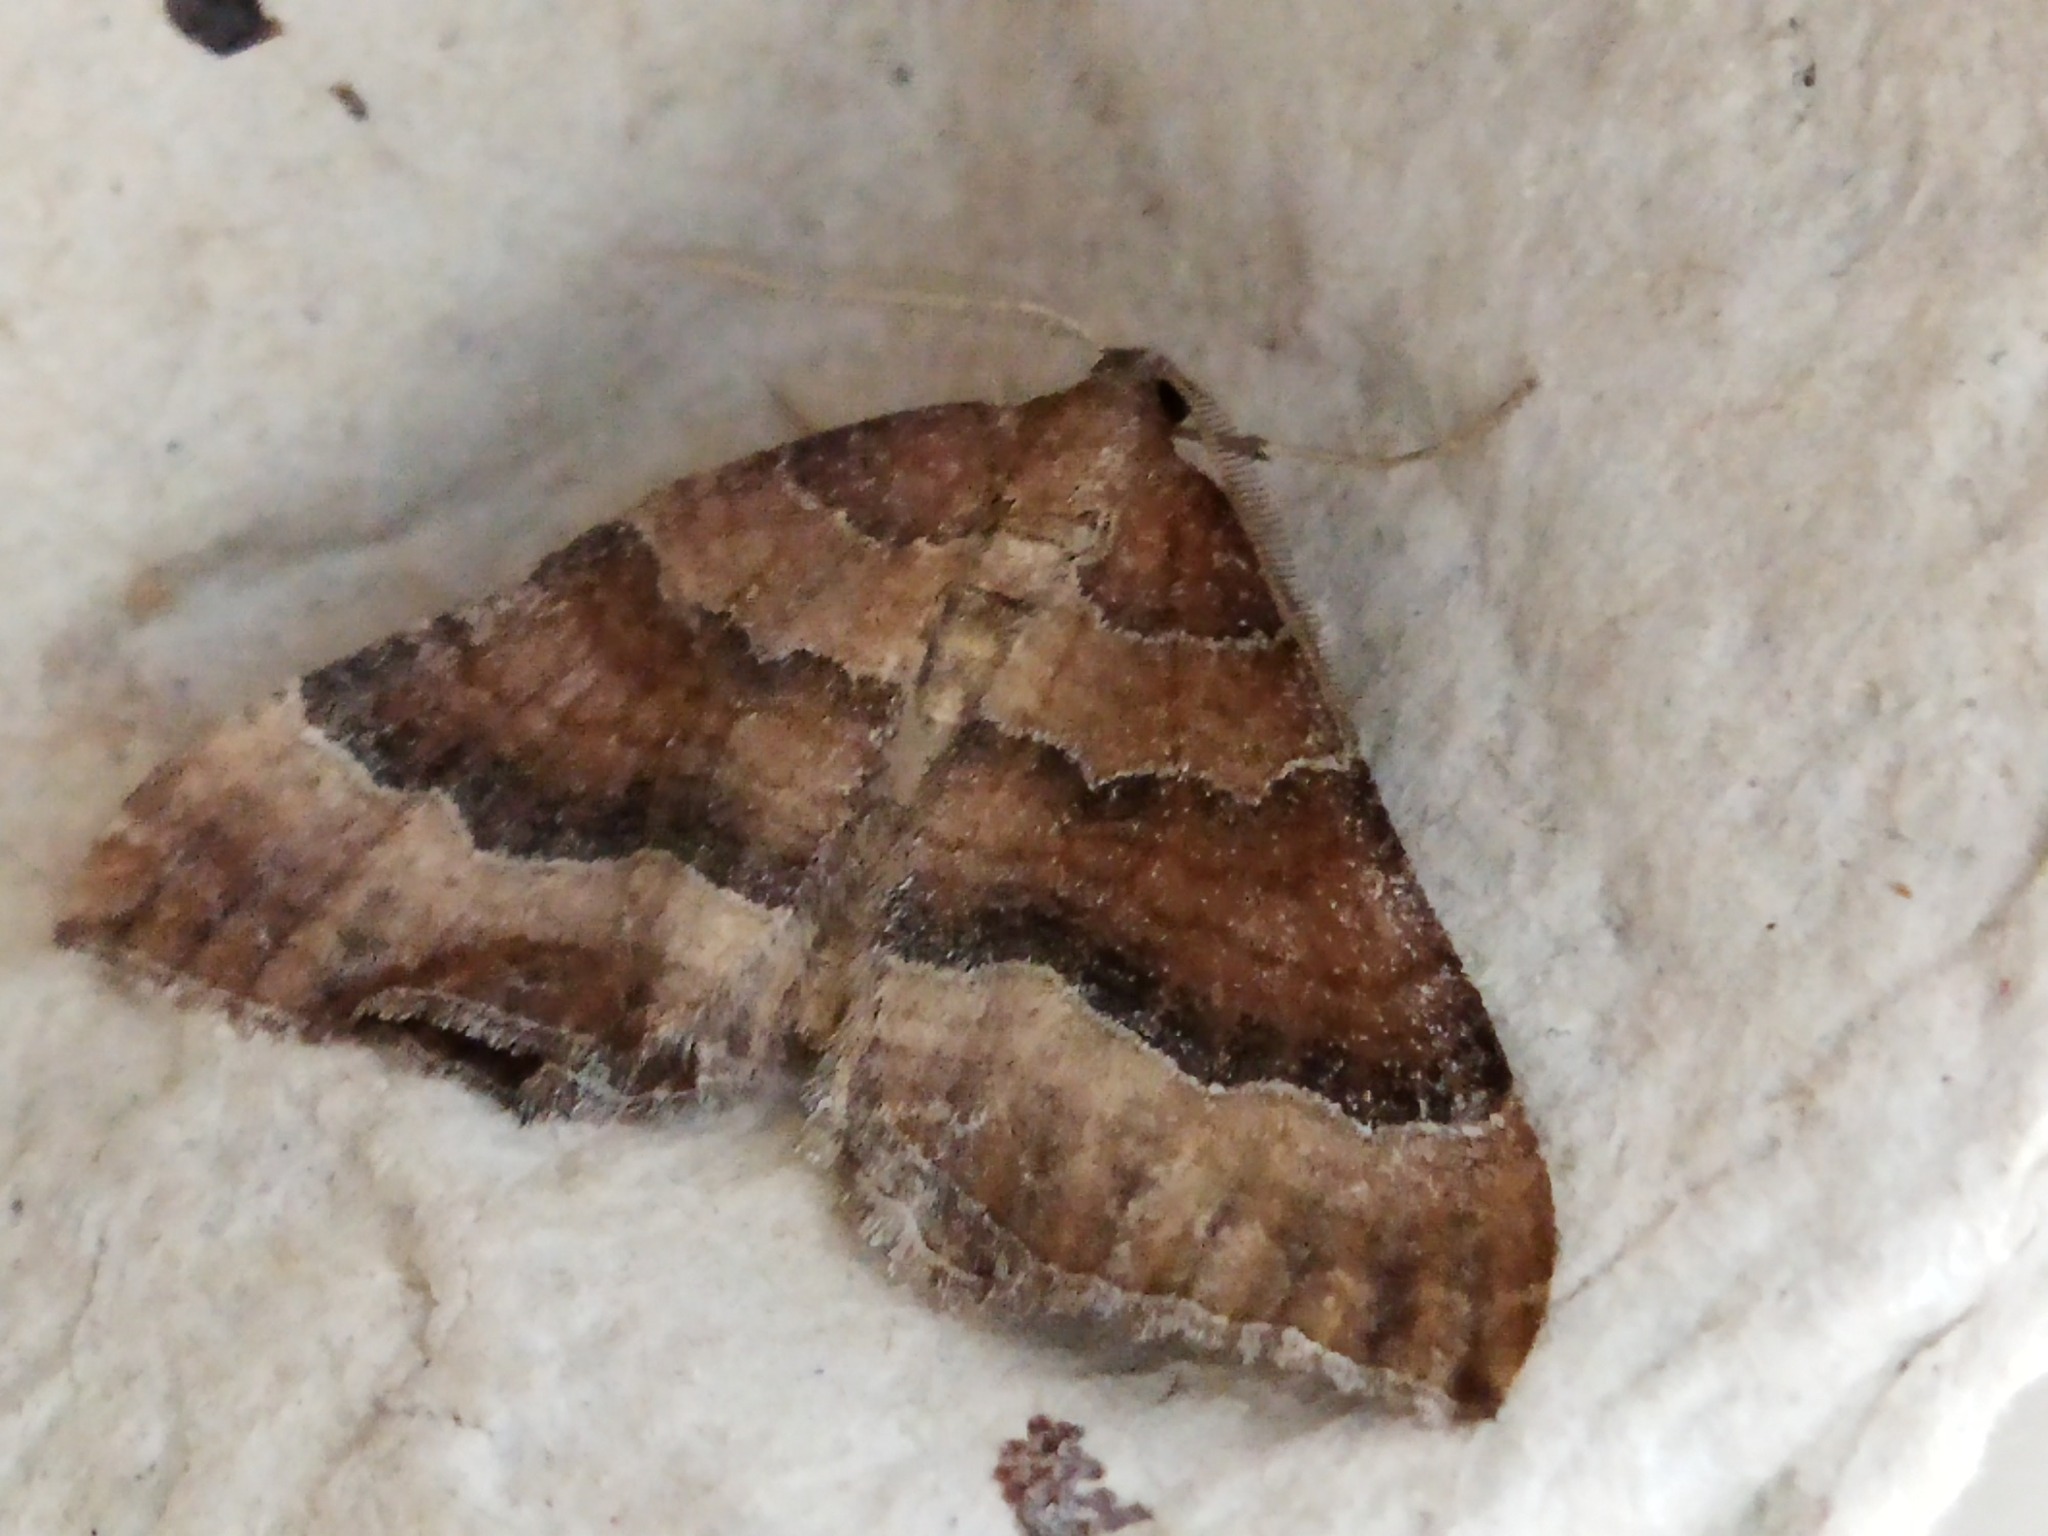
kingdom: Animalia
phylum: Arthropoda
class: Insecta
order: Lepidoptera
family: Geometridae
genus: Larentia
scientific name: Larentia clavaria
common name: Mallow
